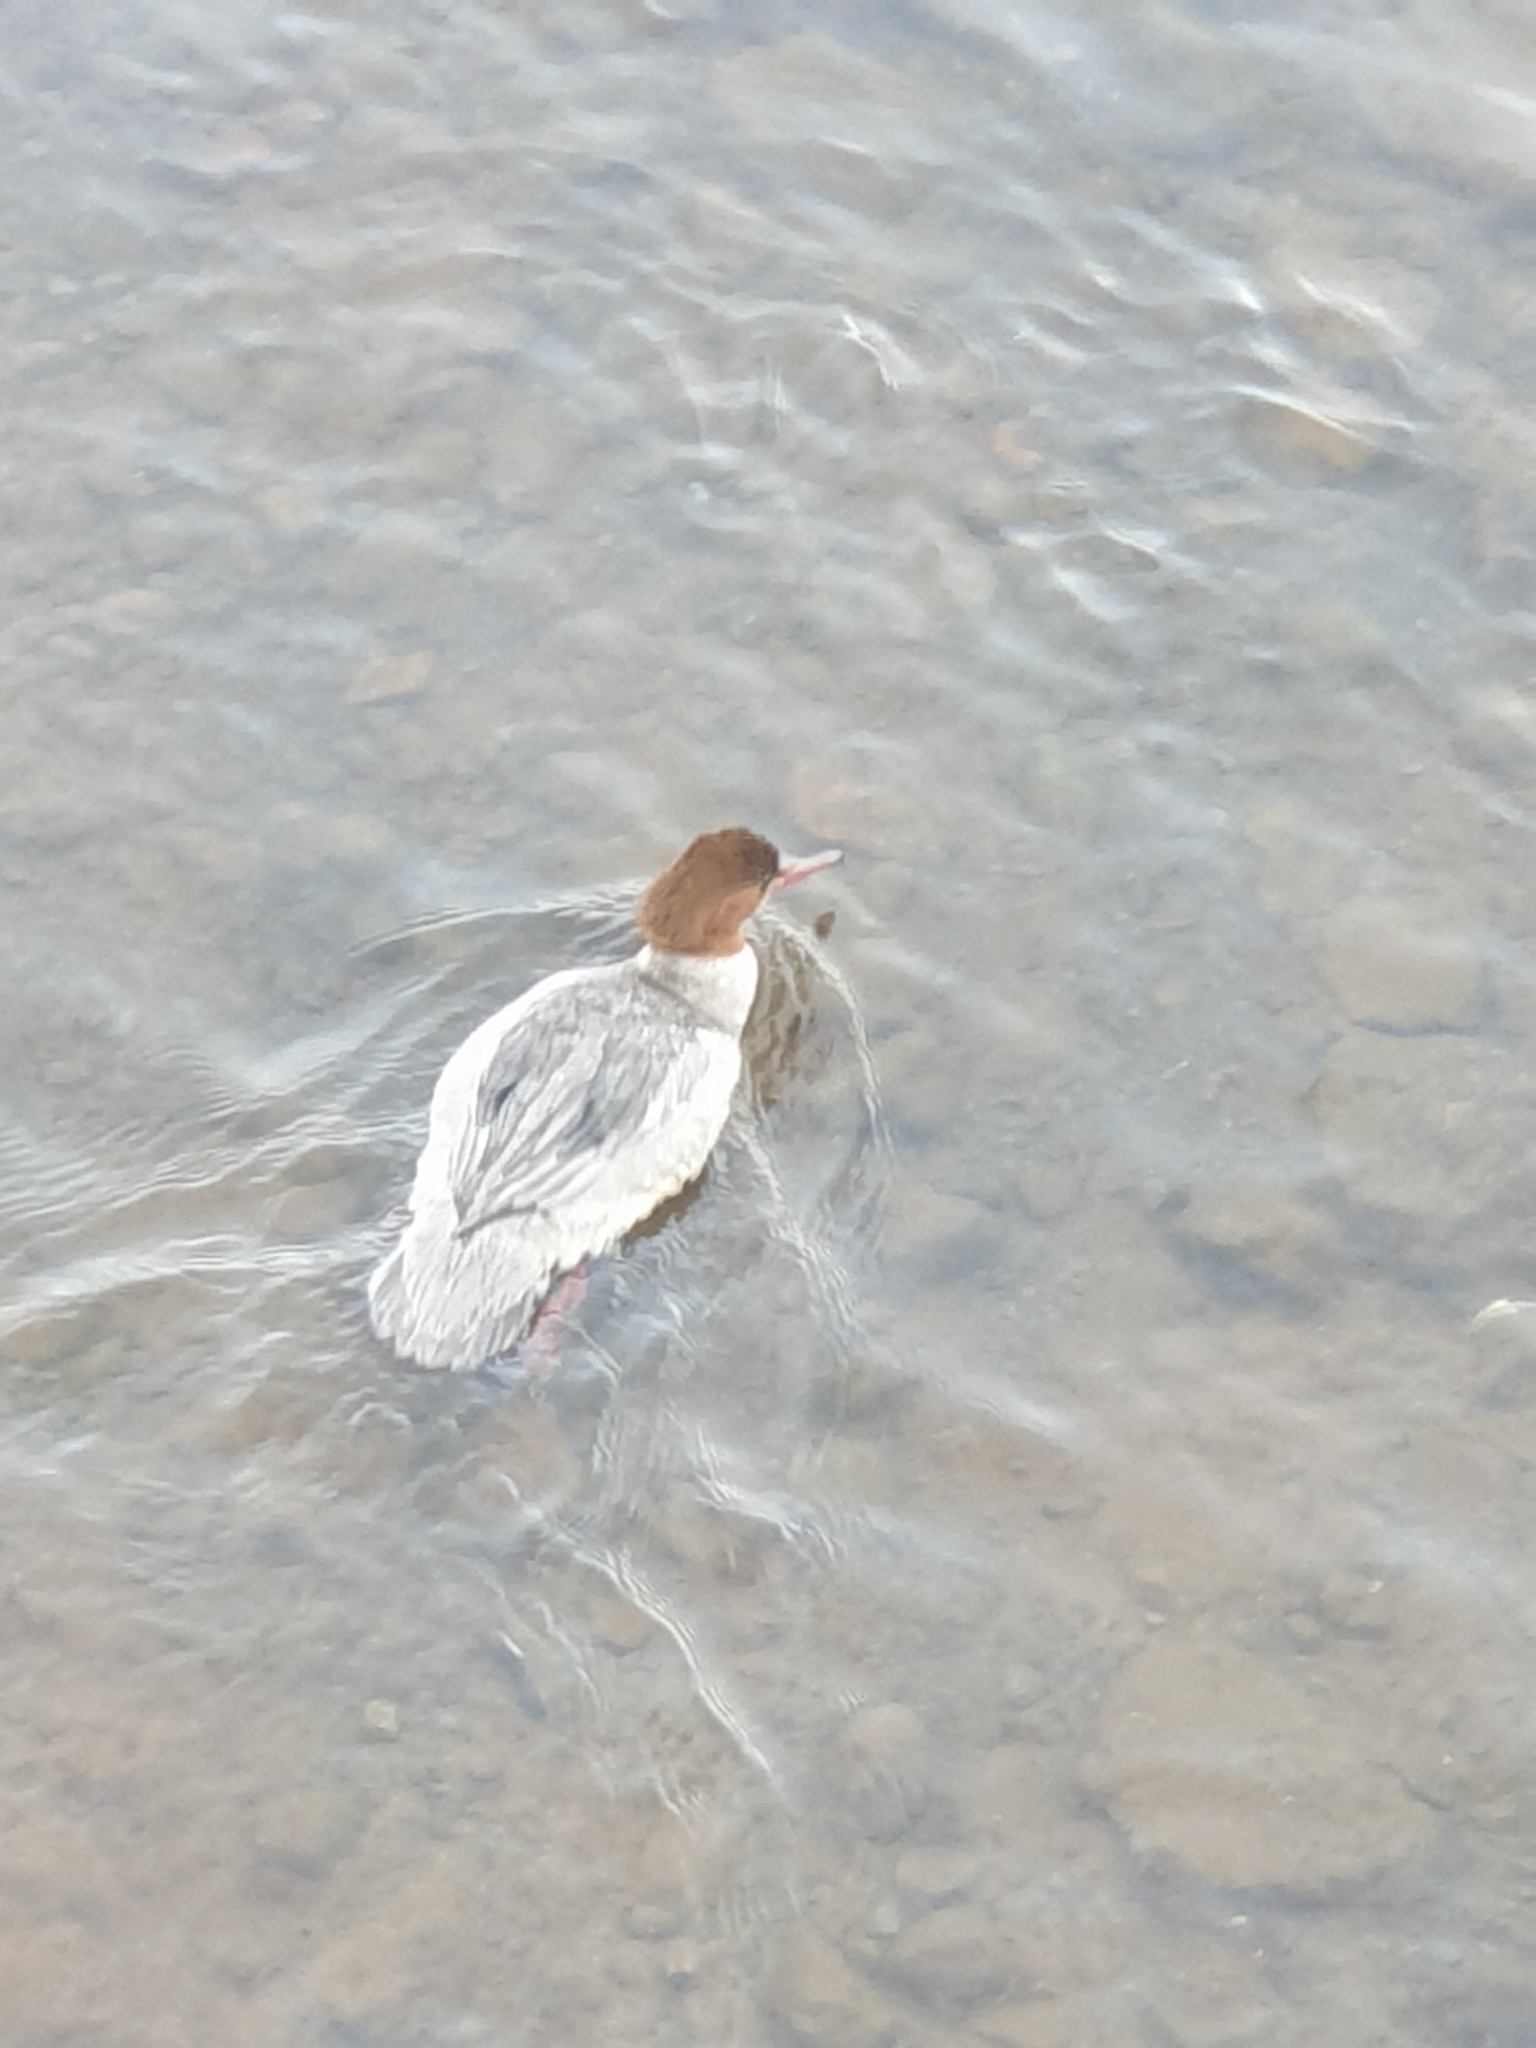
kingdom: Animalia
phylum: Chordata
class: Aves
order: Anseriformes
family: Anatidae
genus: Mergus
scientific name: Mergus merganser
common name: Common merganser
